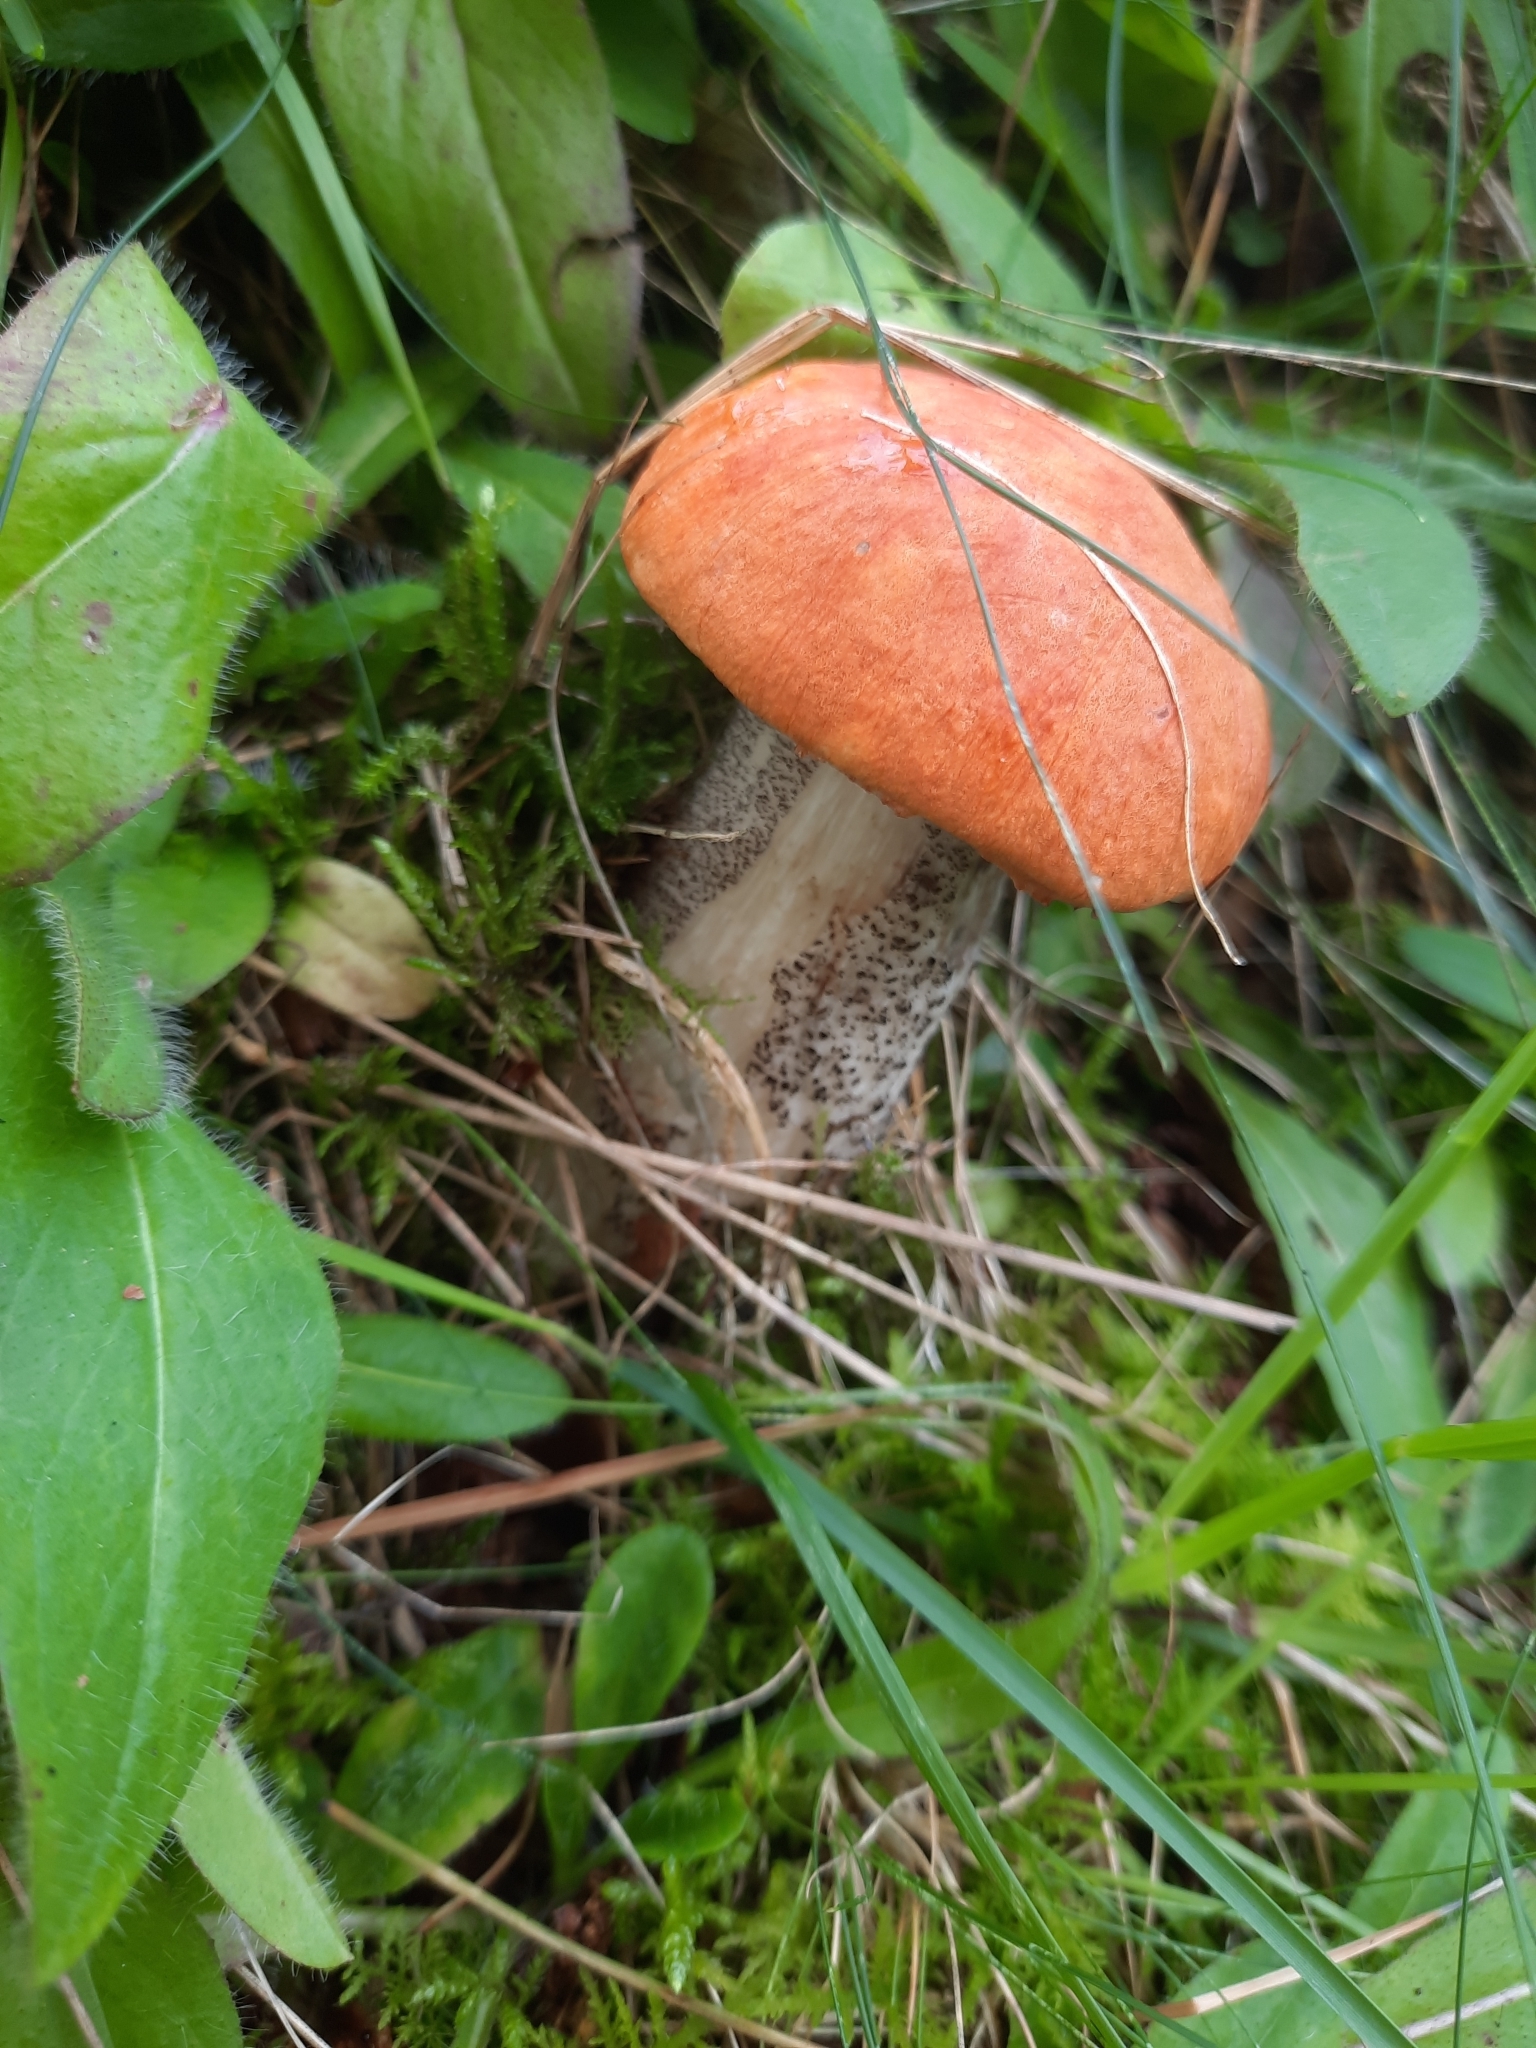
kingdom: Fungi
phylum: Basidiomycota
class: Agaricomycetes
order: Boletales
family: Boletaceae
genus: Leccinum
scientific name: Leccinum versipelle
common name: Orange birch bolete
